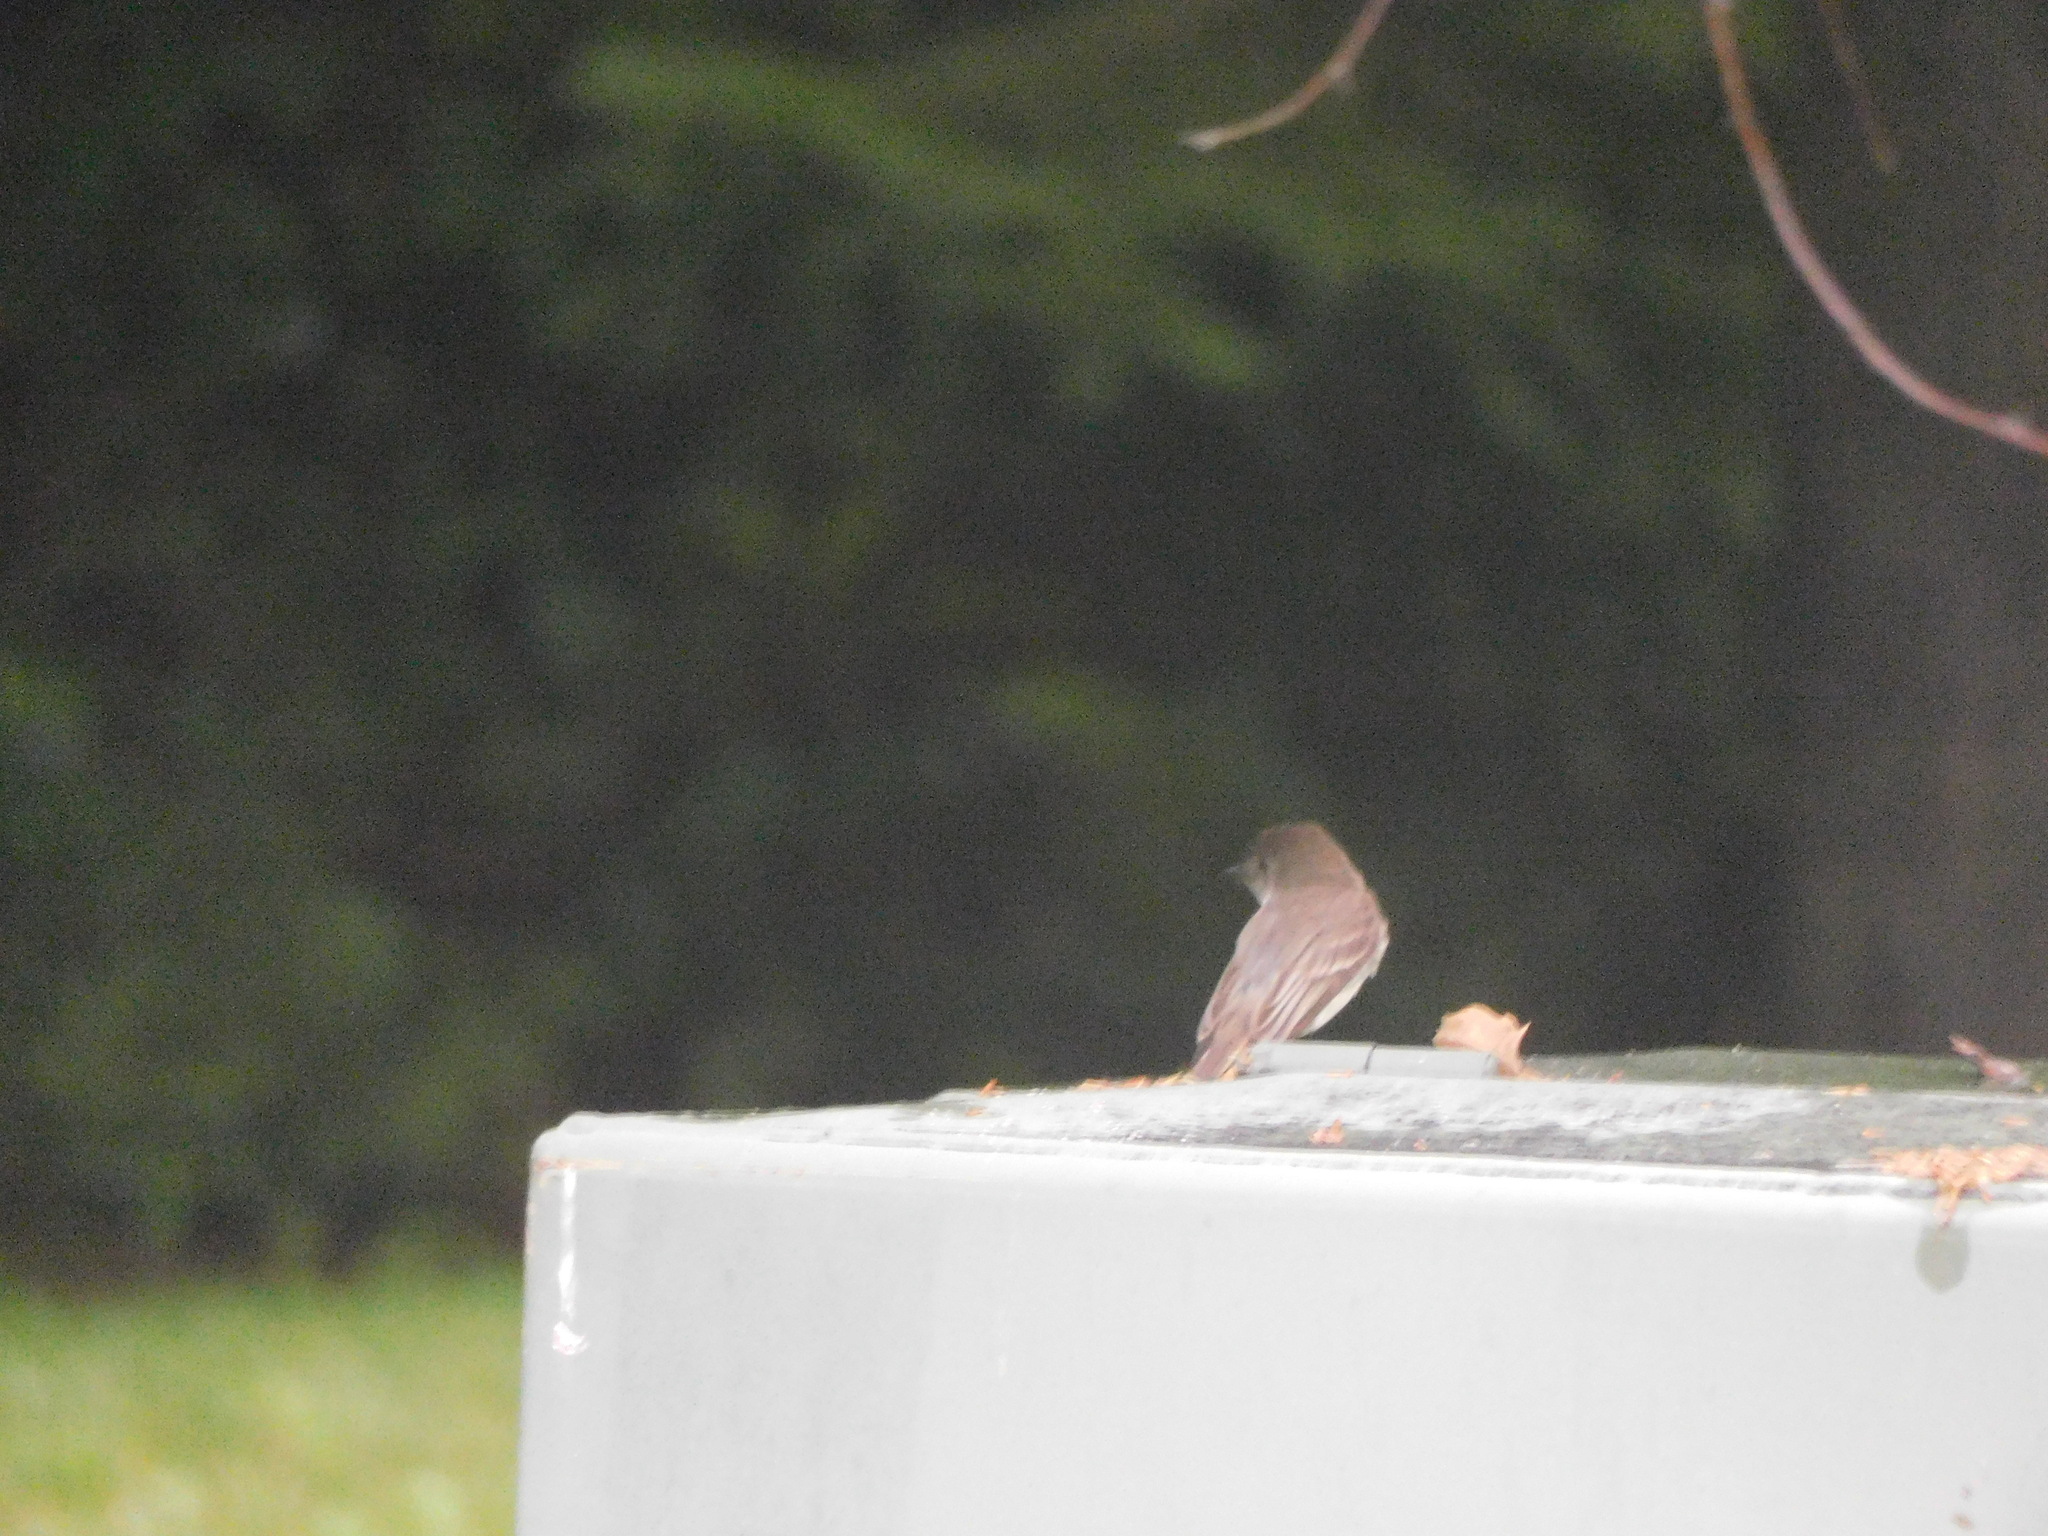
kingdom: Animalia
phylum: Chordata
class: Aves
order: Passeriformes
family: Tyrannidae
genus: Sayornis
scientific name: Sayornis phoebe
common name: Eastern phoebe
